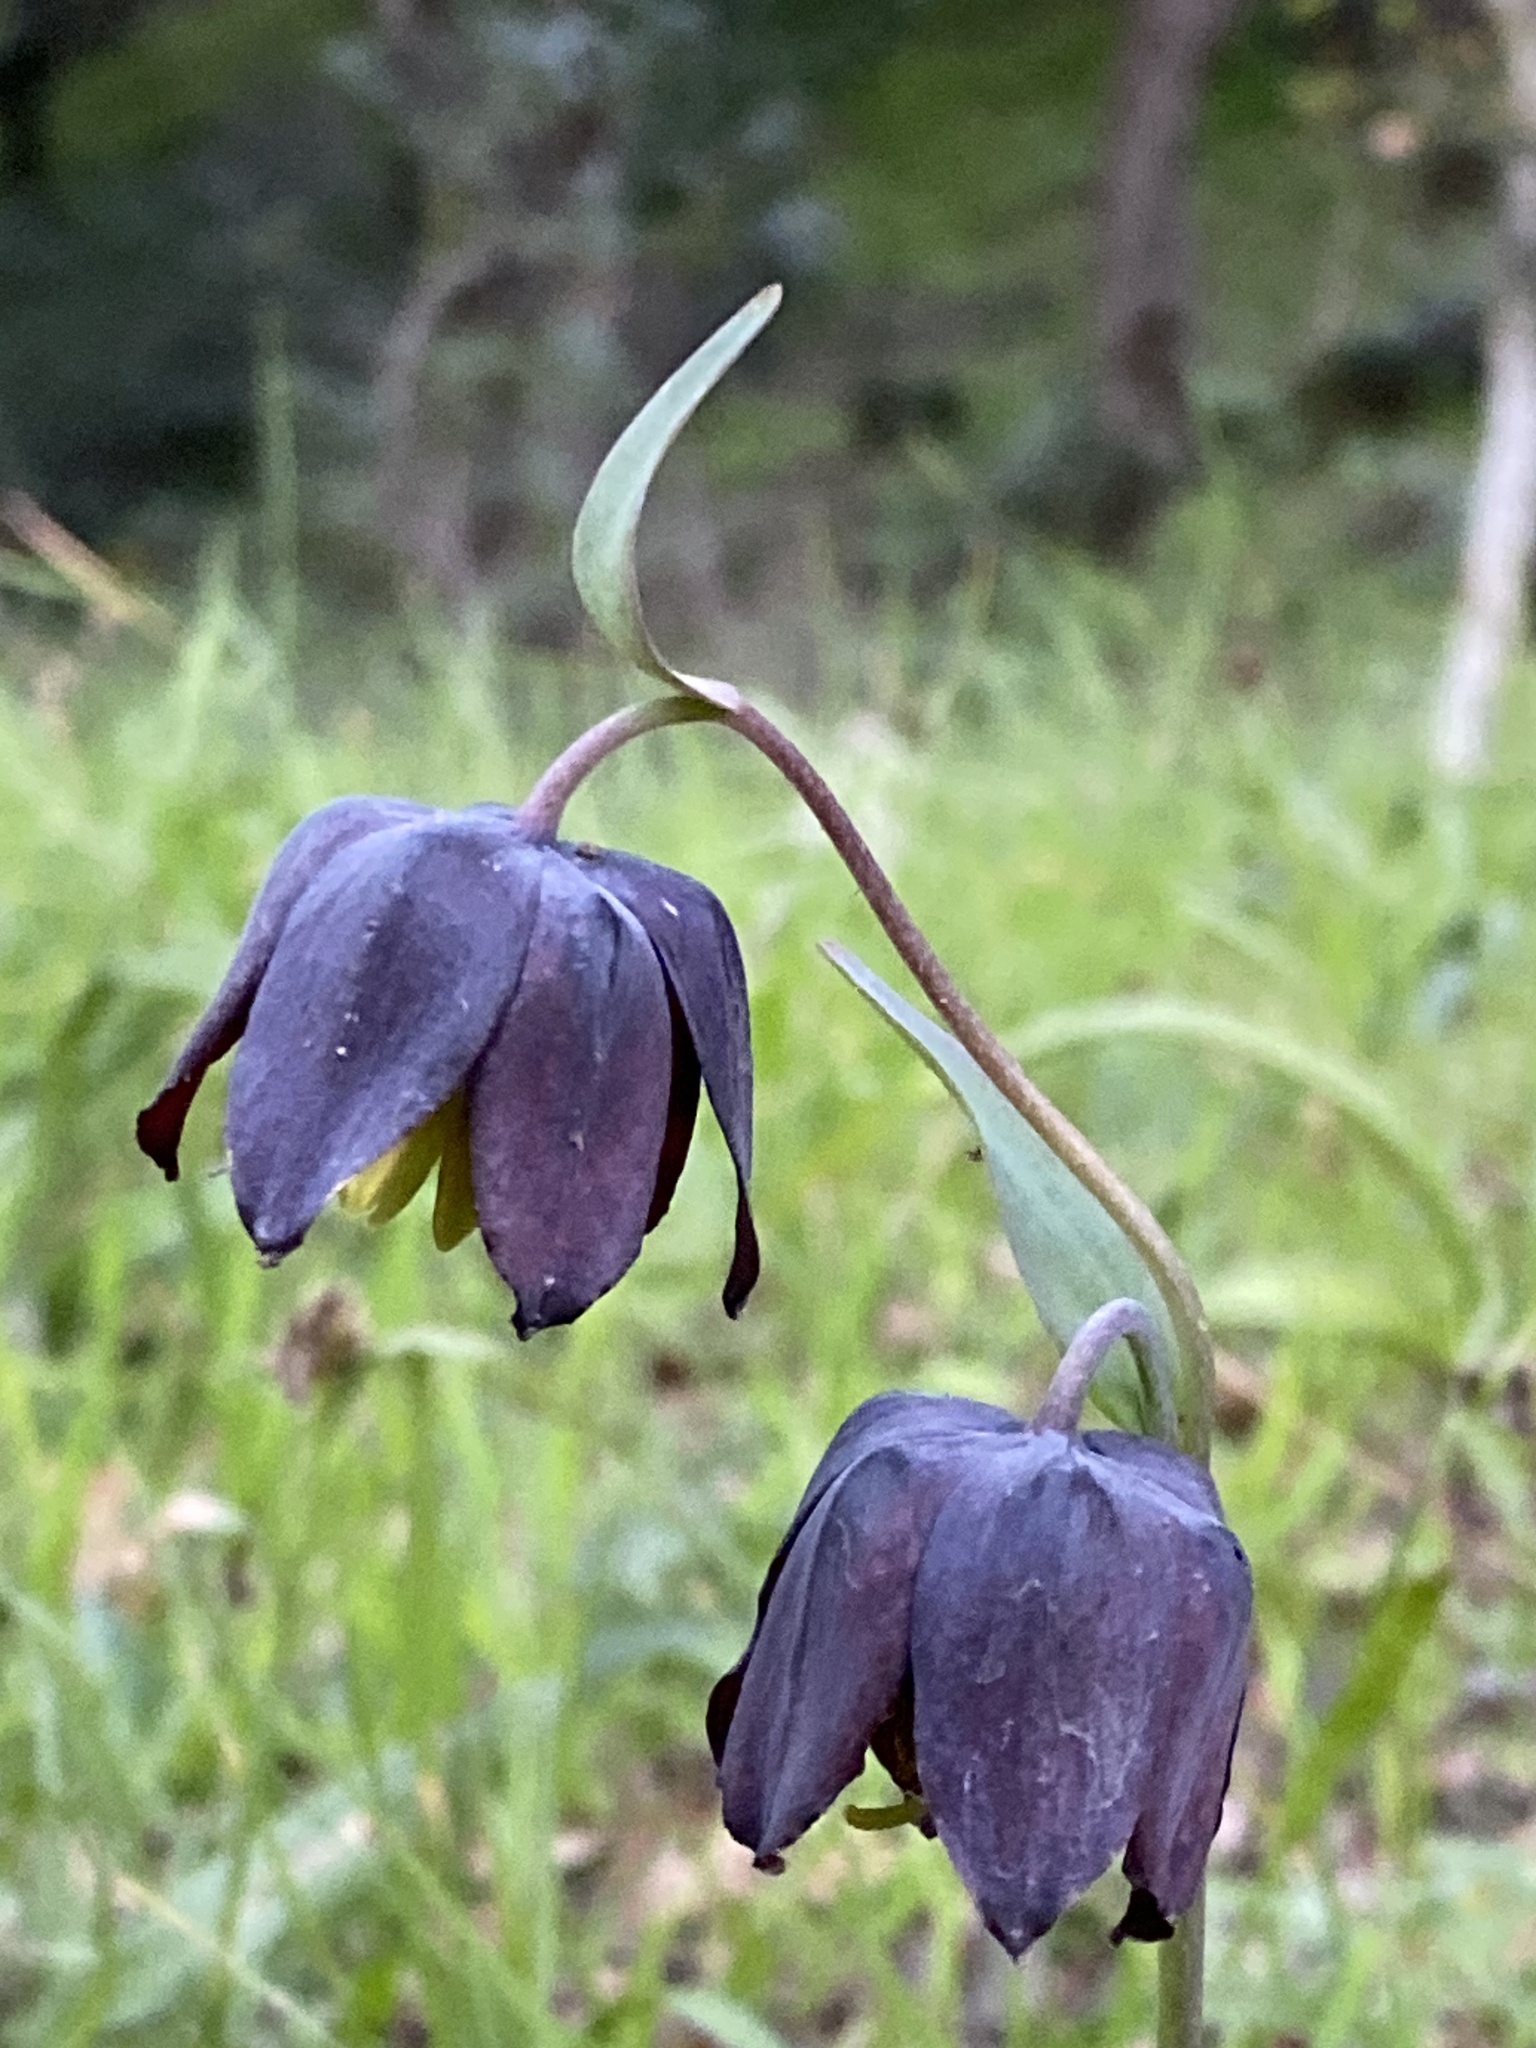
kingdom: Plantae
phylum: Tracheophyta
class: Liliopsida
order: Liliales
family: Liliaceae
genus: Fritillaria
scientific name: Fritillaria affinis
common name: Ojai fritillary
